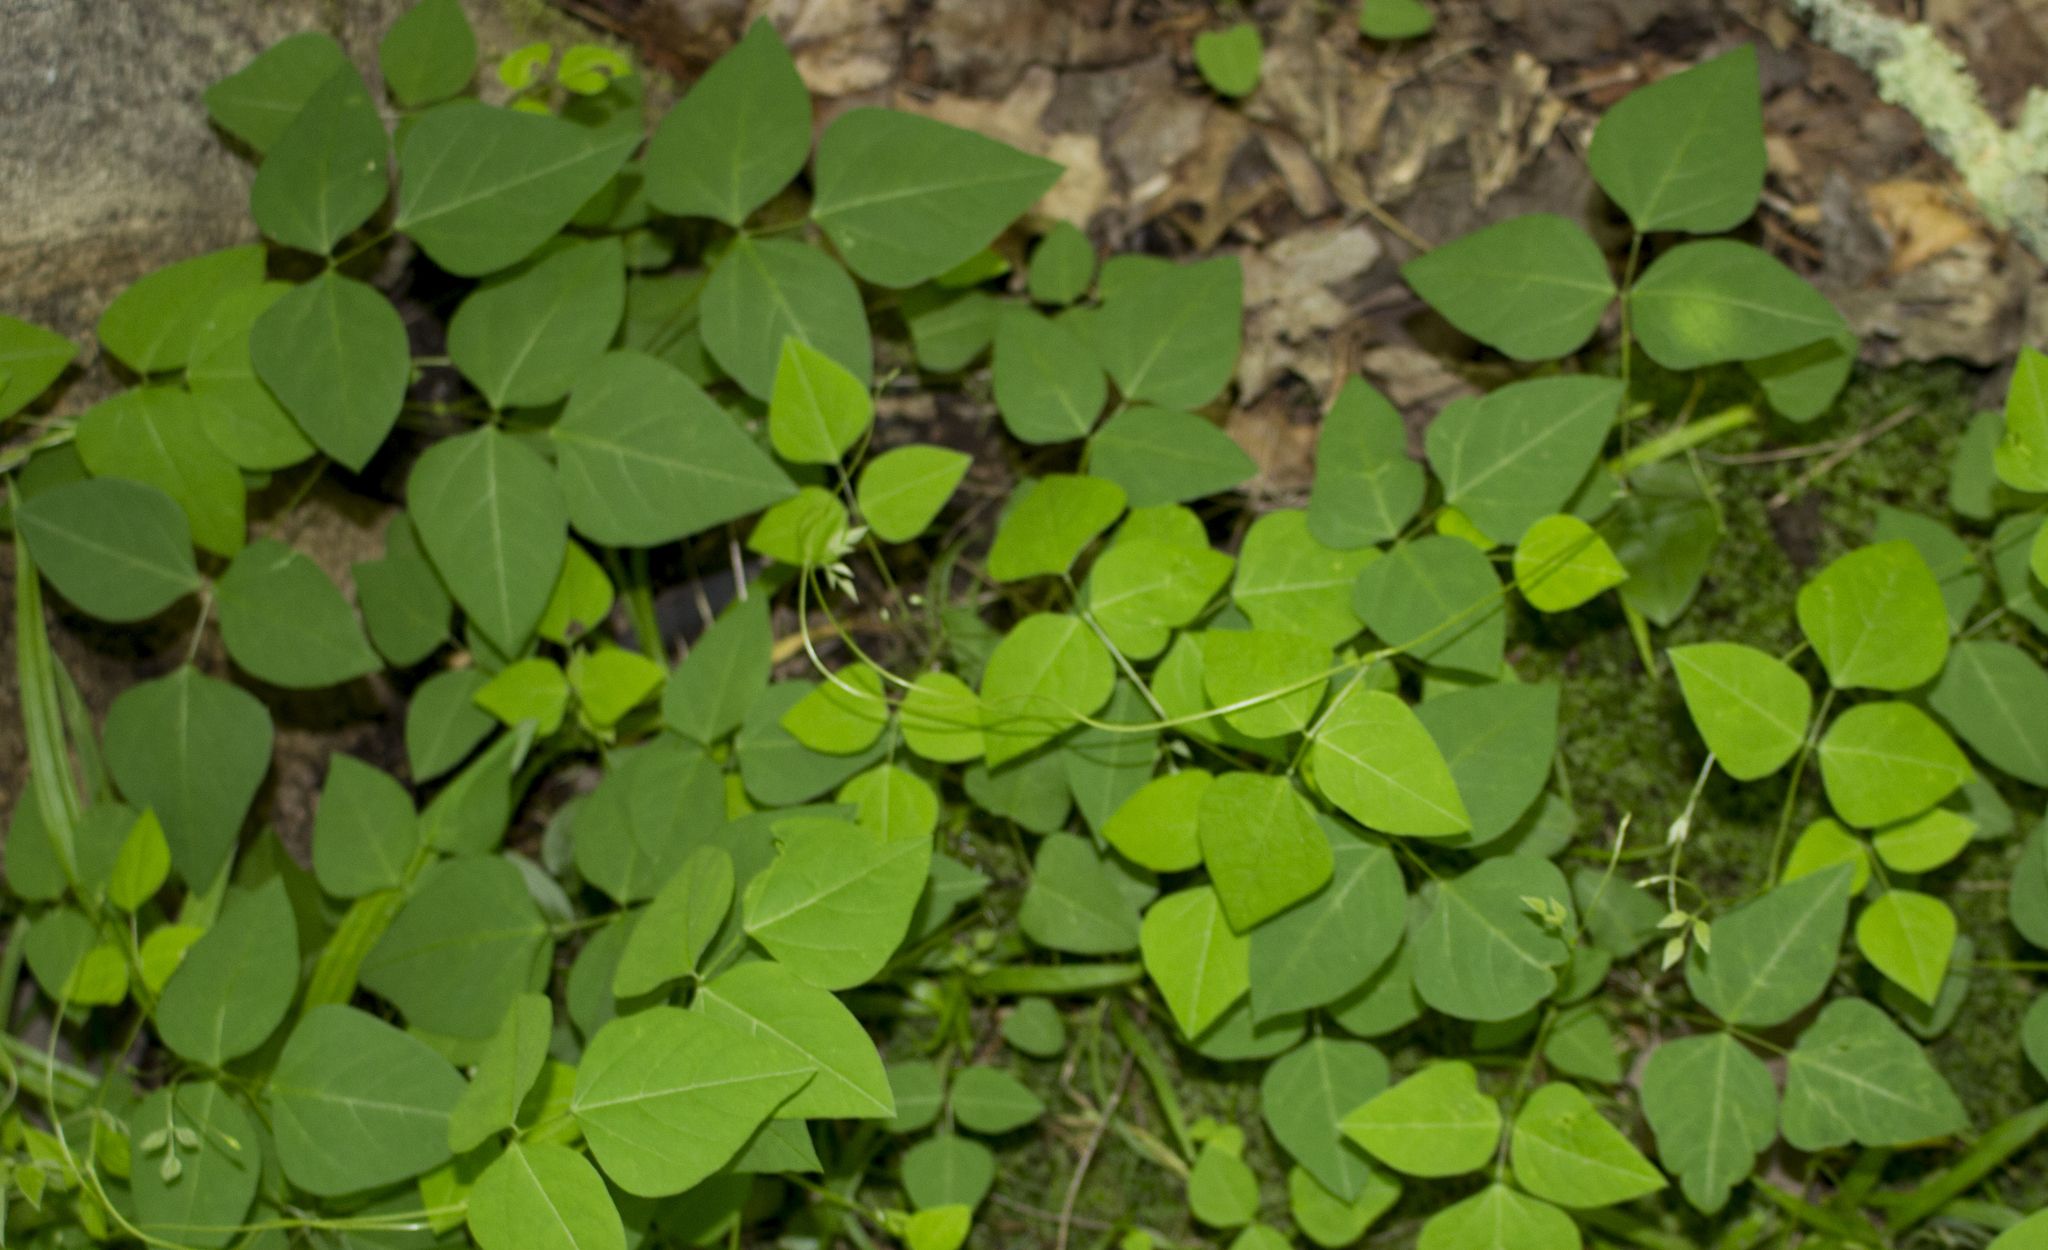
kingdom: Plantae
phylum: Tracheophyta
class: Magnoliopsida
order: Fabales
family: Fabaceae
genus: Amphicarpaea
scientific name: Amphicarpaea bracteata
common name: American hog peanut
